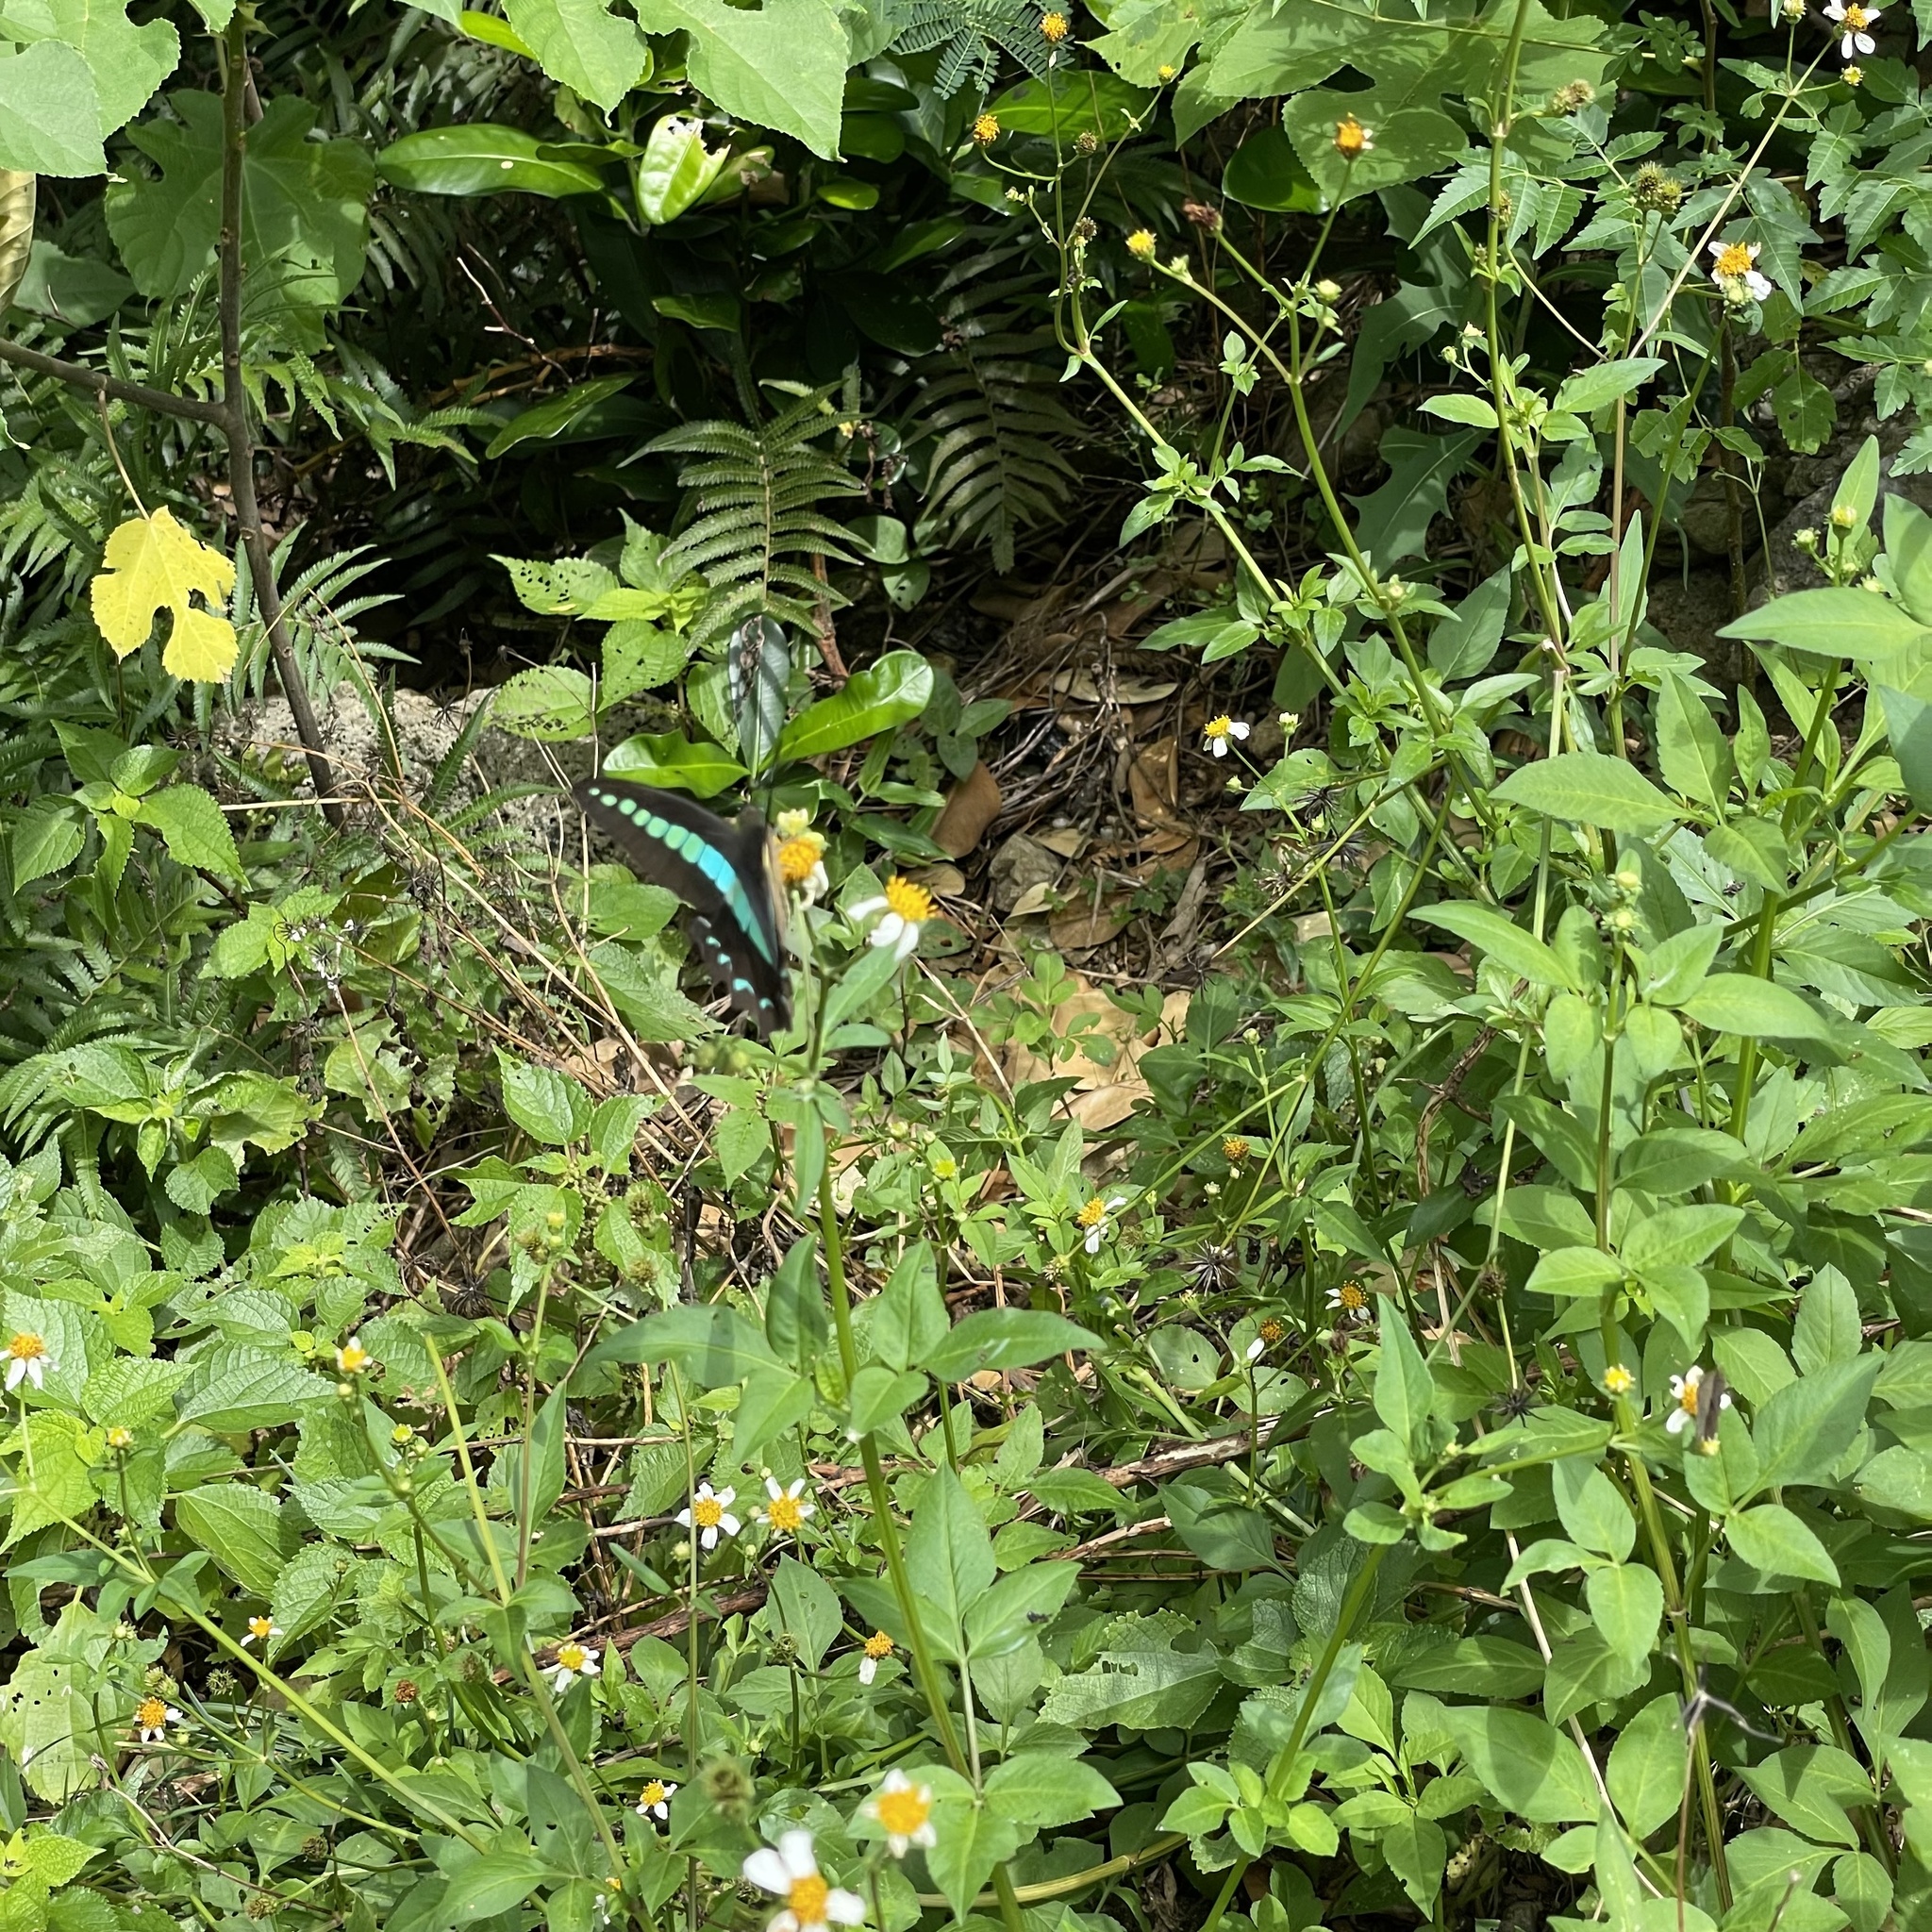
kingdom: Fungi
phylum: Ascomycota
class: Sordariomycetes
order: Microascales
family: Microascaceae
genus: Graphium
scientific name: Graphium sarpedon
